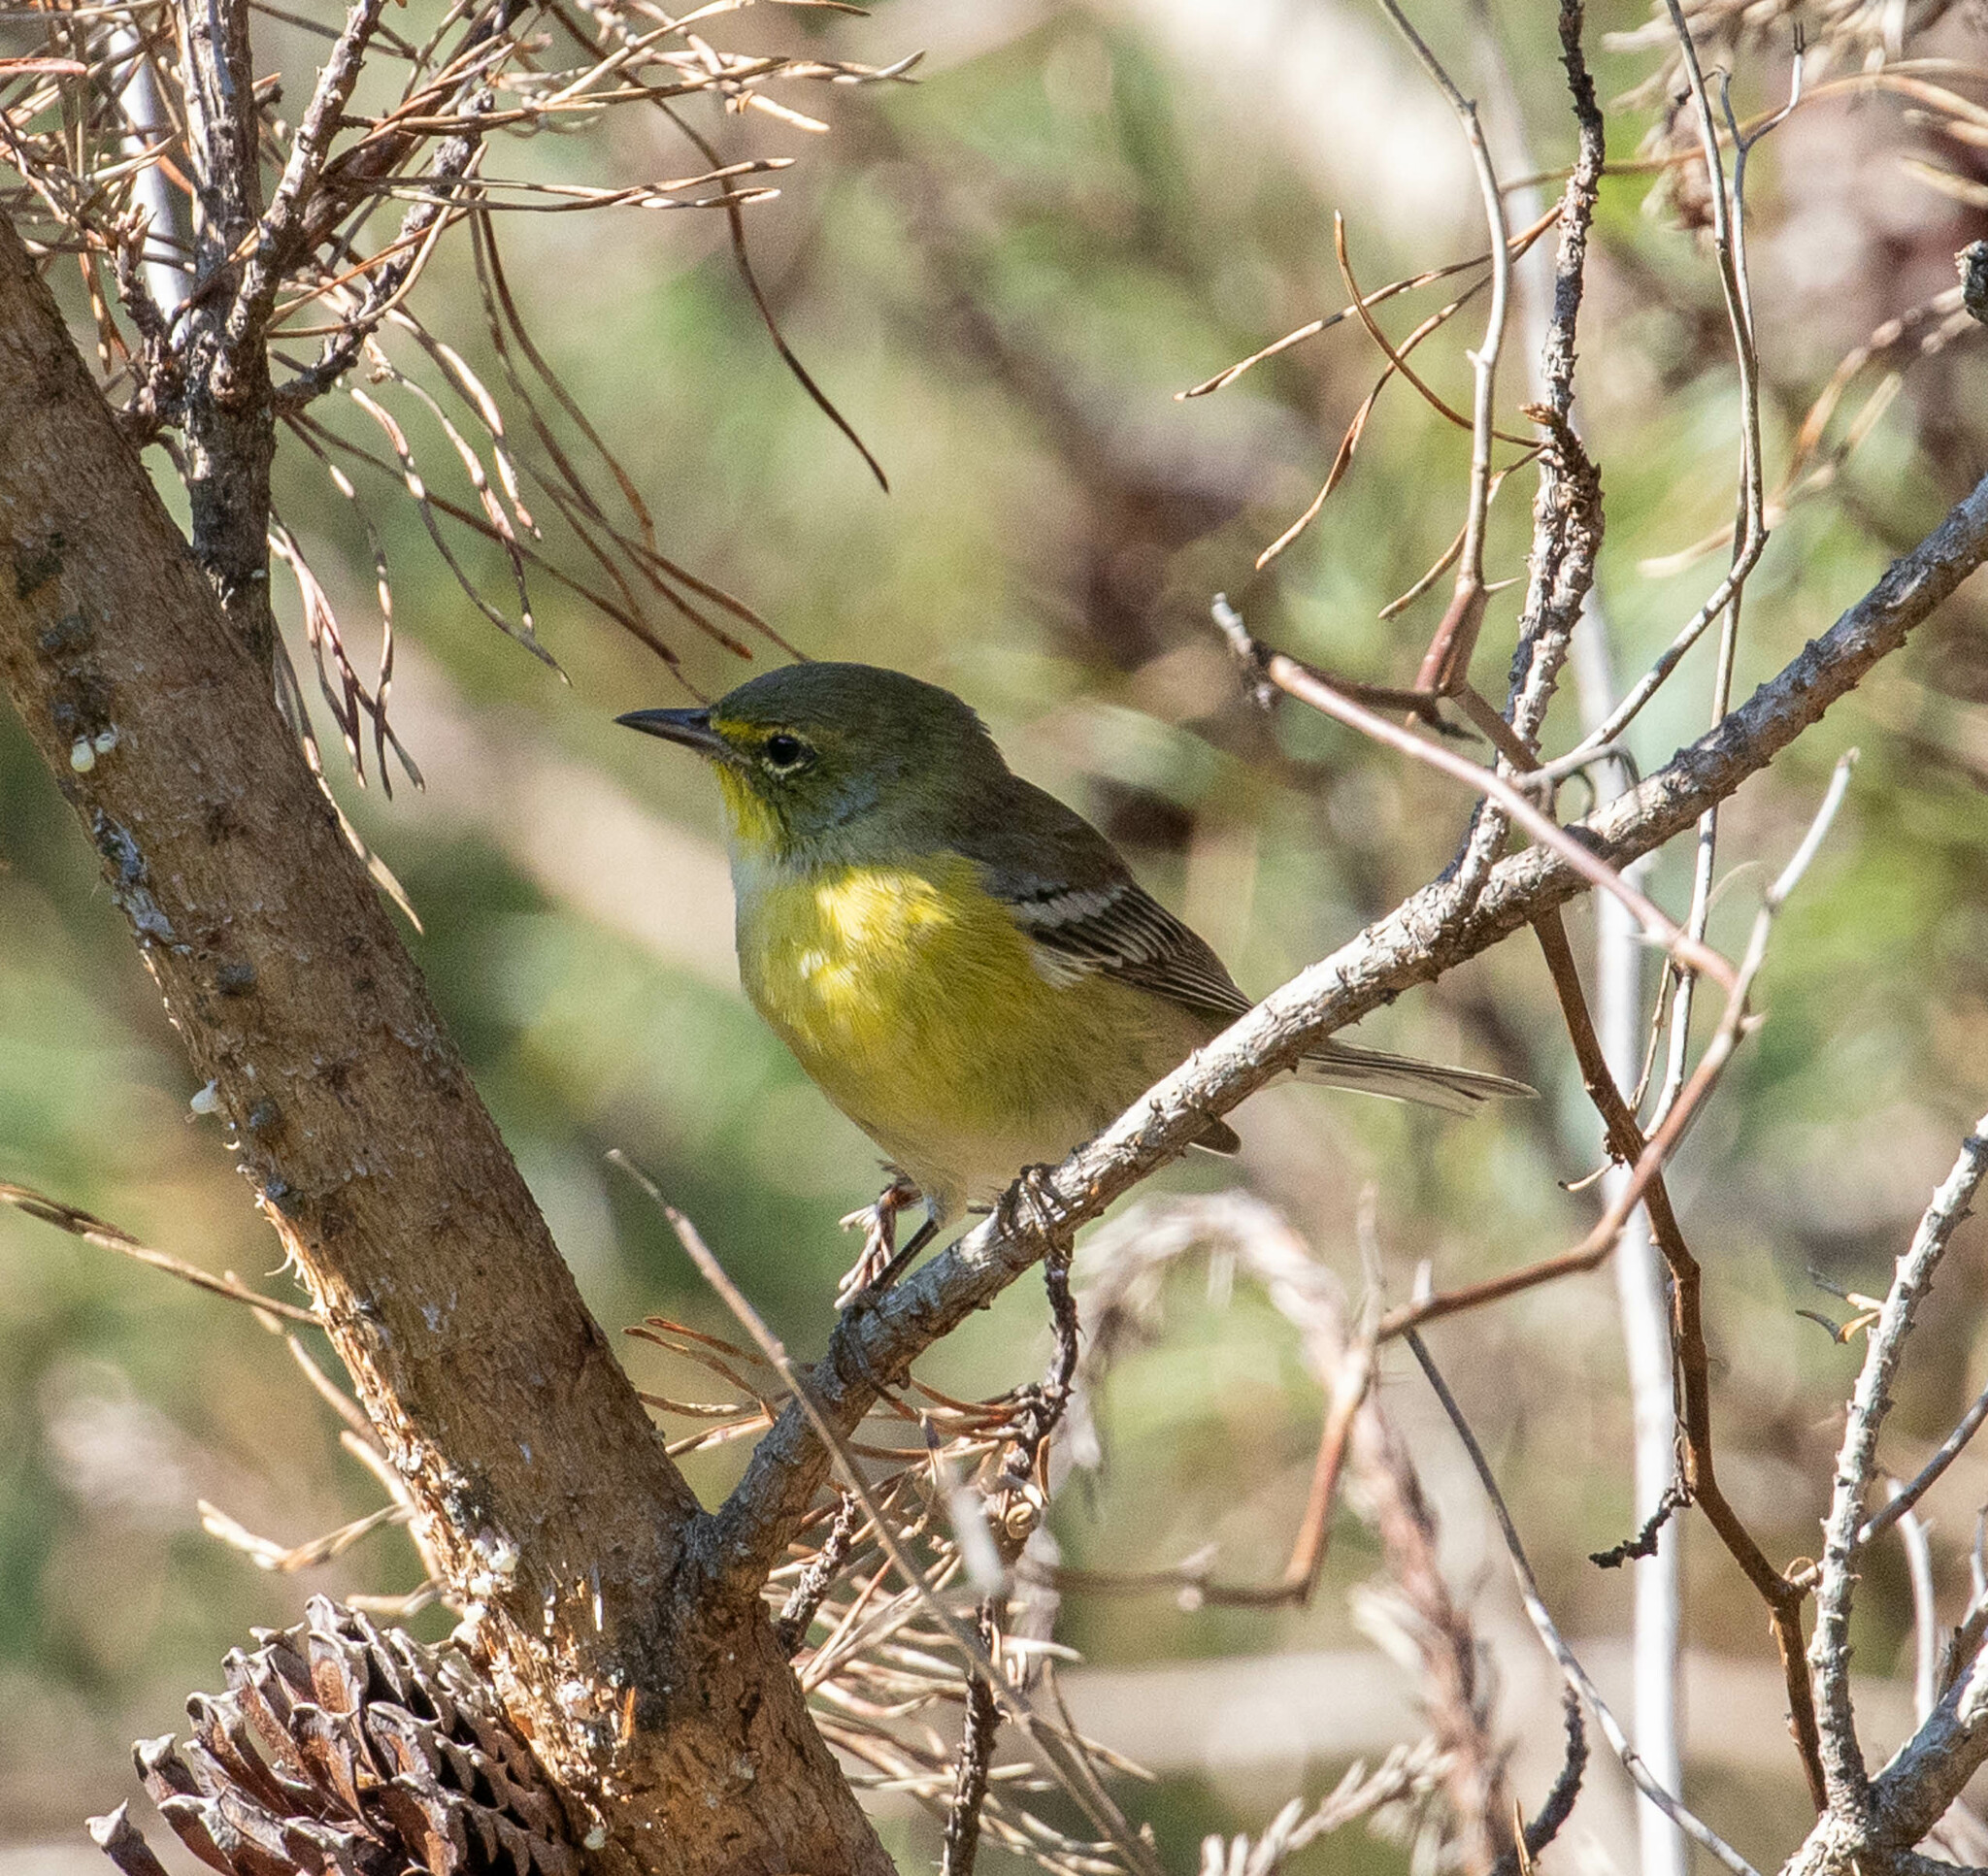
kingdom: Animalia
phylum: Chordata
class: Aves
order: Passeriformes
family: Parulidae
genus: Setophaga
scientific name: Setophaga pinus
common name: Pine warbler
